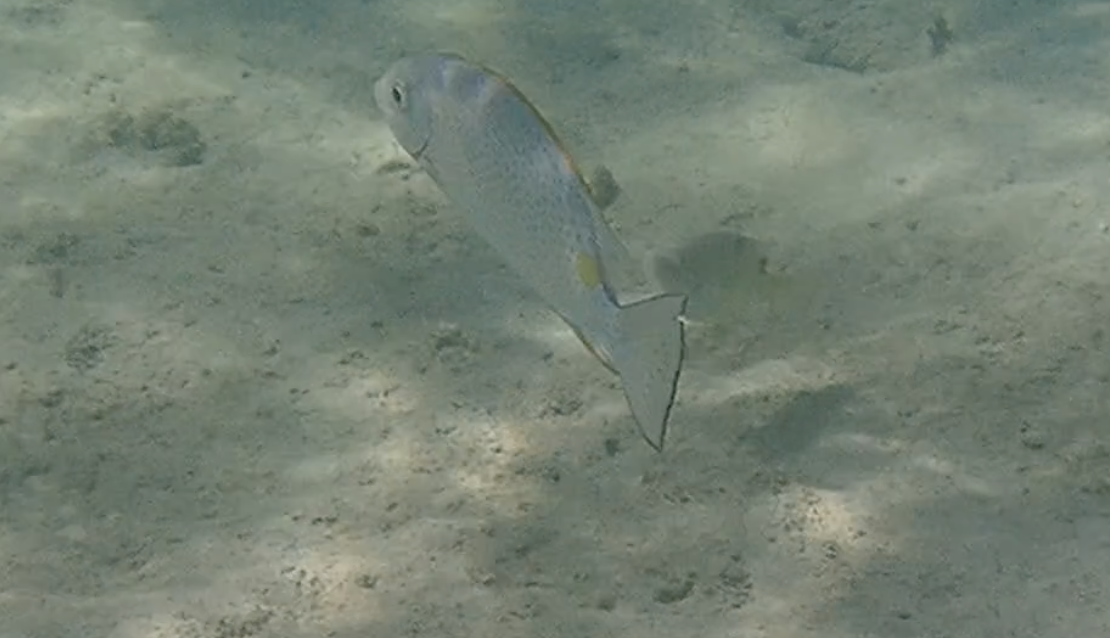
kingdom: Animalia
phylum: Chordata
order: Perciformes
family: Siganidae
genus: Siganus
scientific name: Siganus guttatus
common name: Golden rabbitfish
